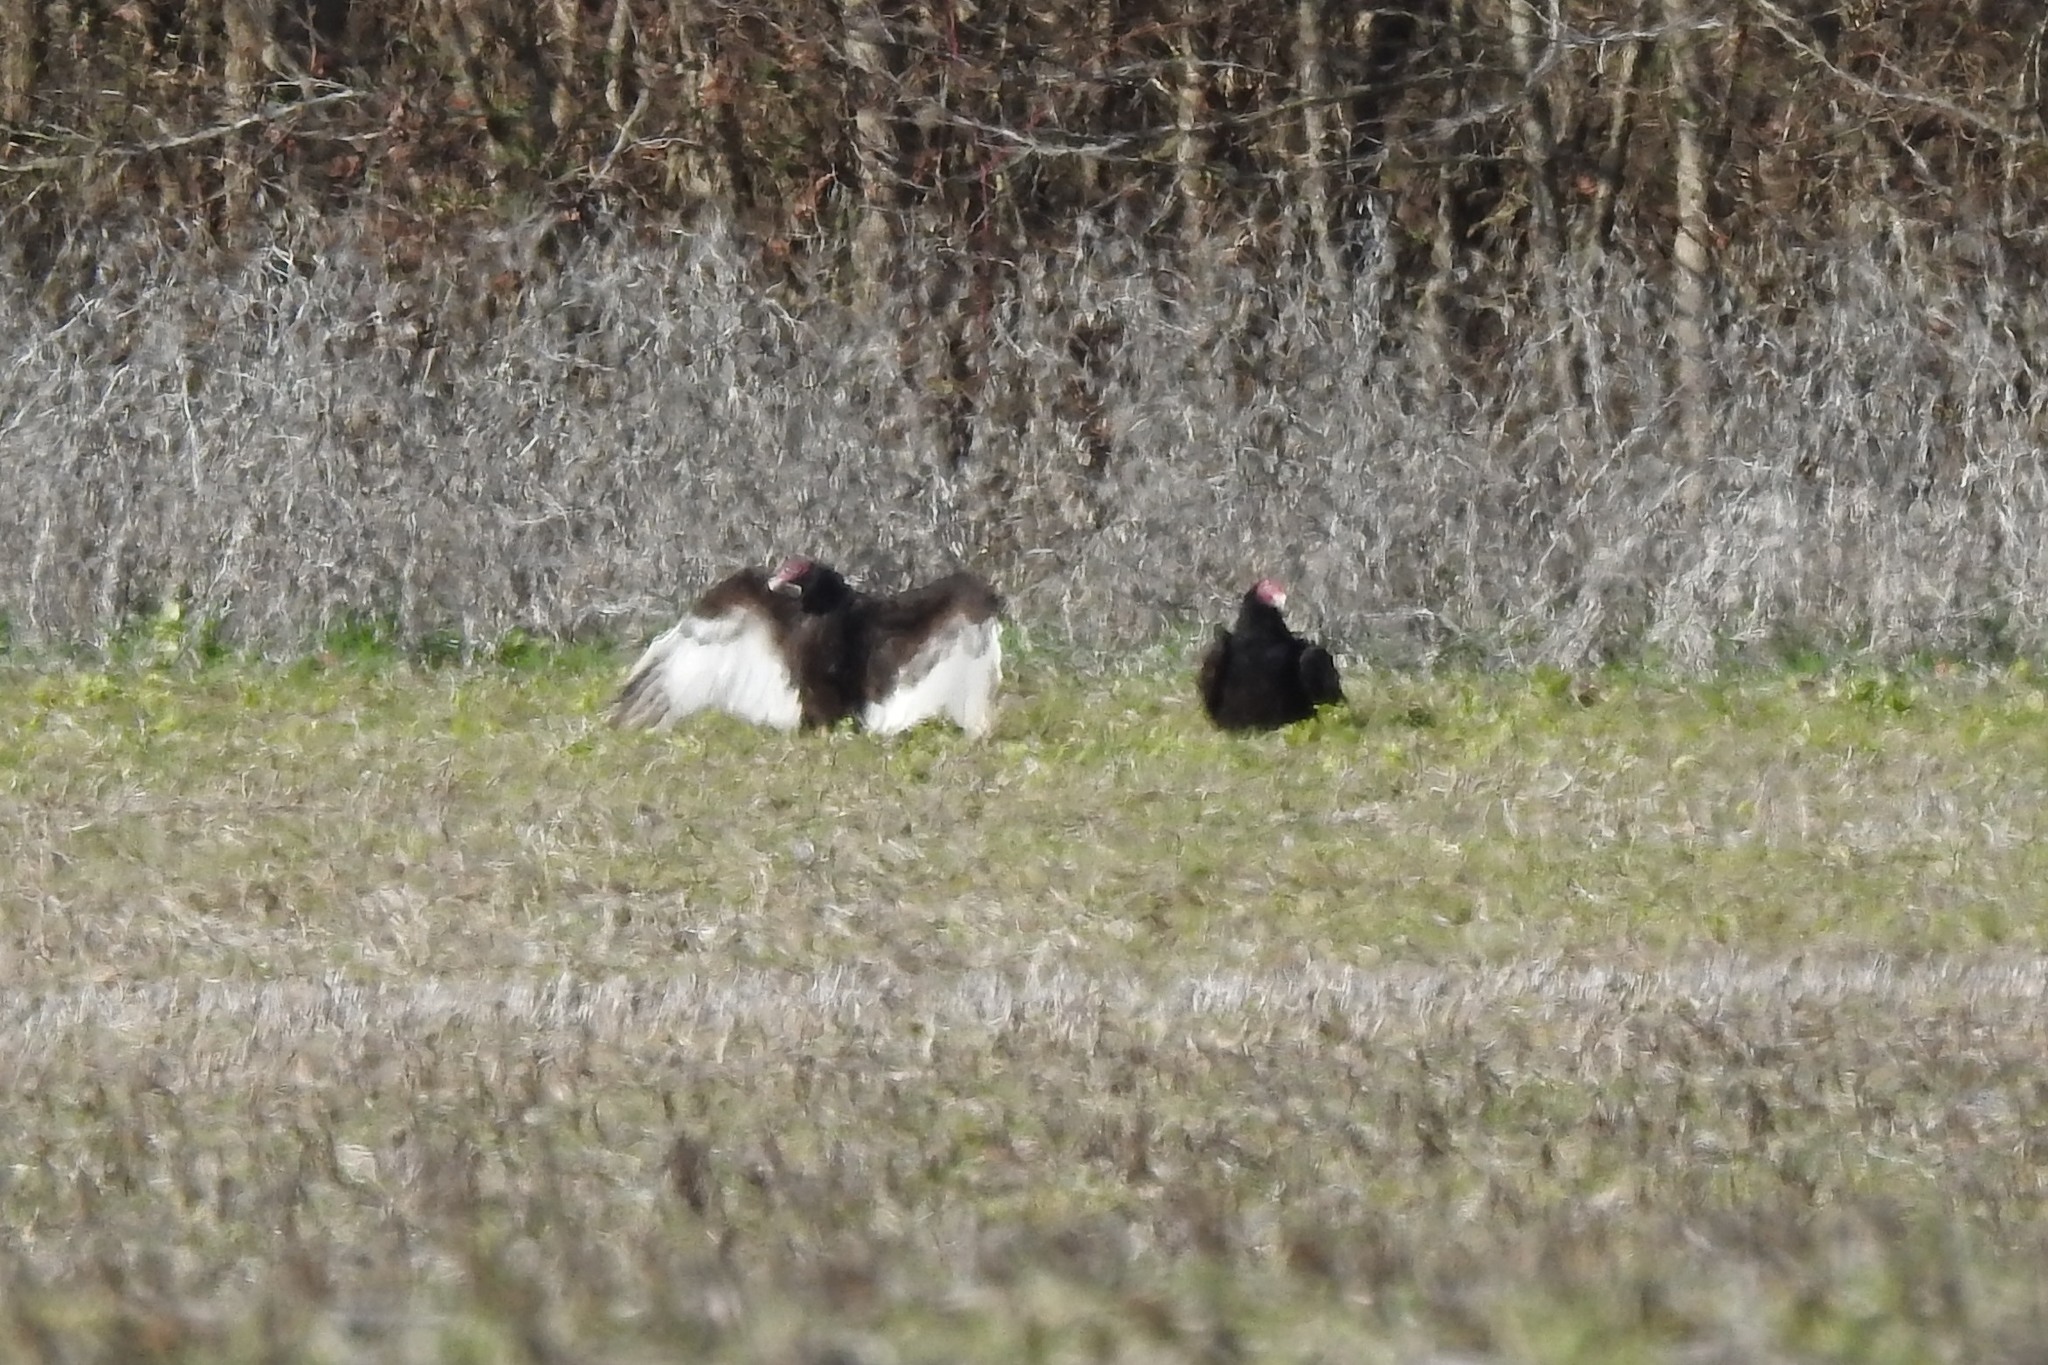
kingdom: Animalia
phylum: Chordata
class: Aves
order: Accipitriformes
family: Cathartidae
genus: Cathartes
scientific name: Cathartes aura
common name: Turkey vulture
